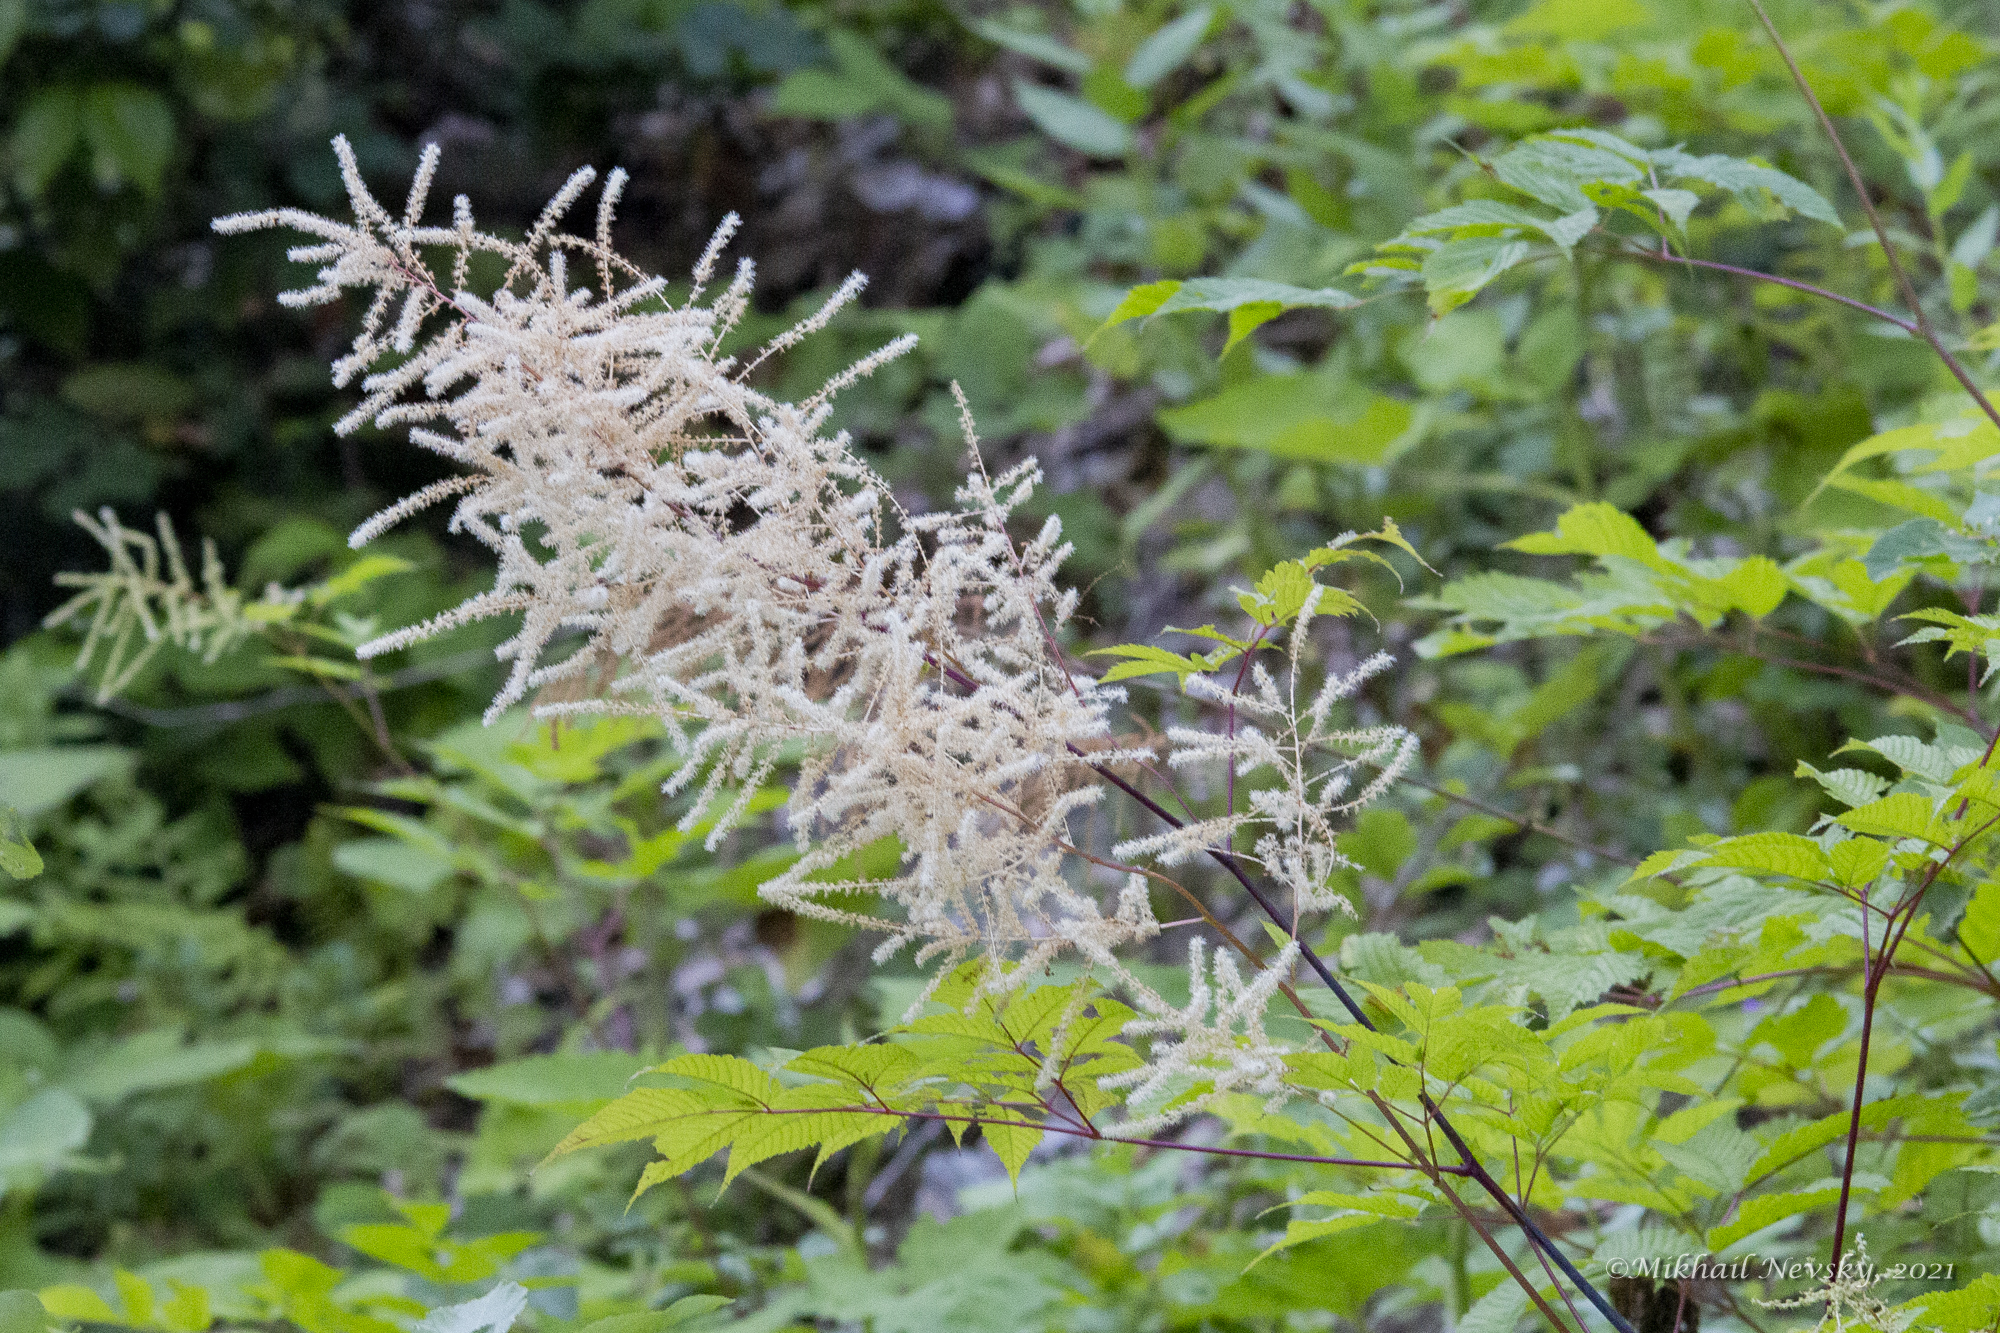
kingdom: Plantae
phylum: Tracheophyta
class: Magnoliopsida
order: Rosales
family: Rosaceae
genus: Aruncus
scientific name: Aruncus dioicus
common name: Buck's-beard
